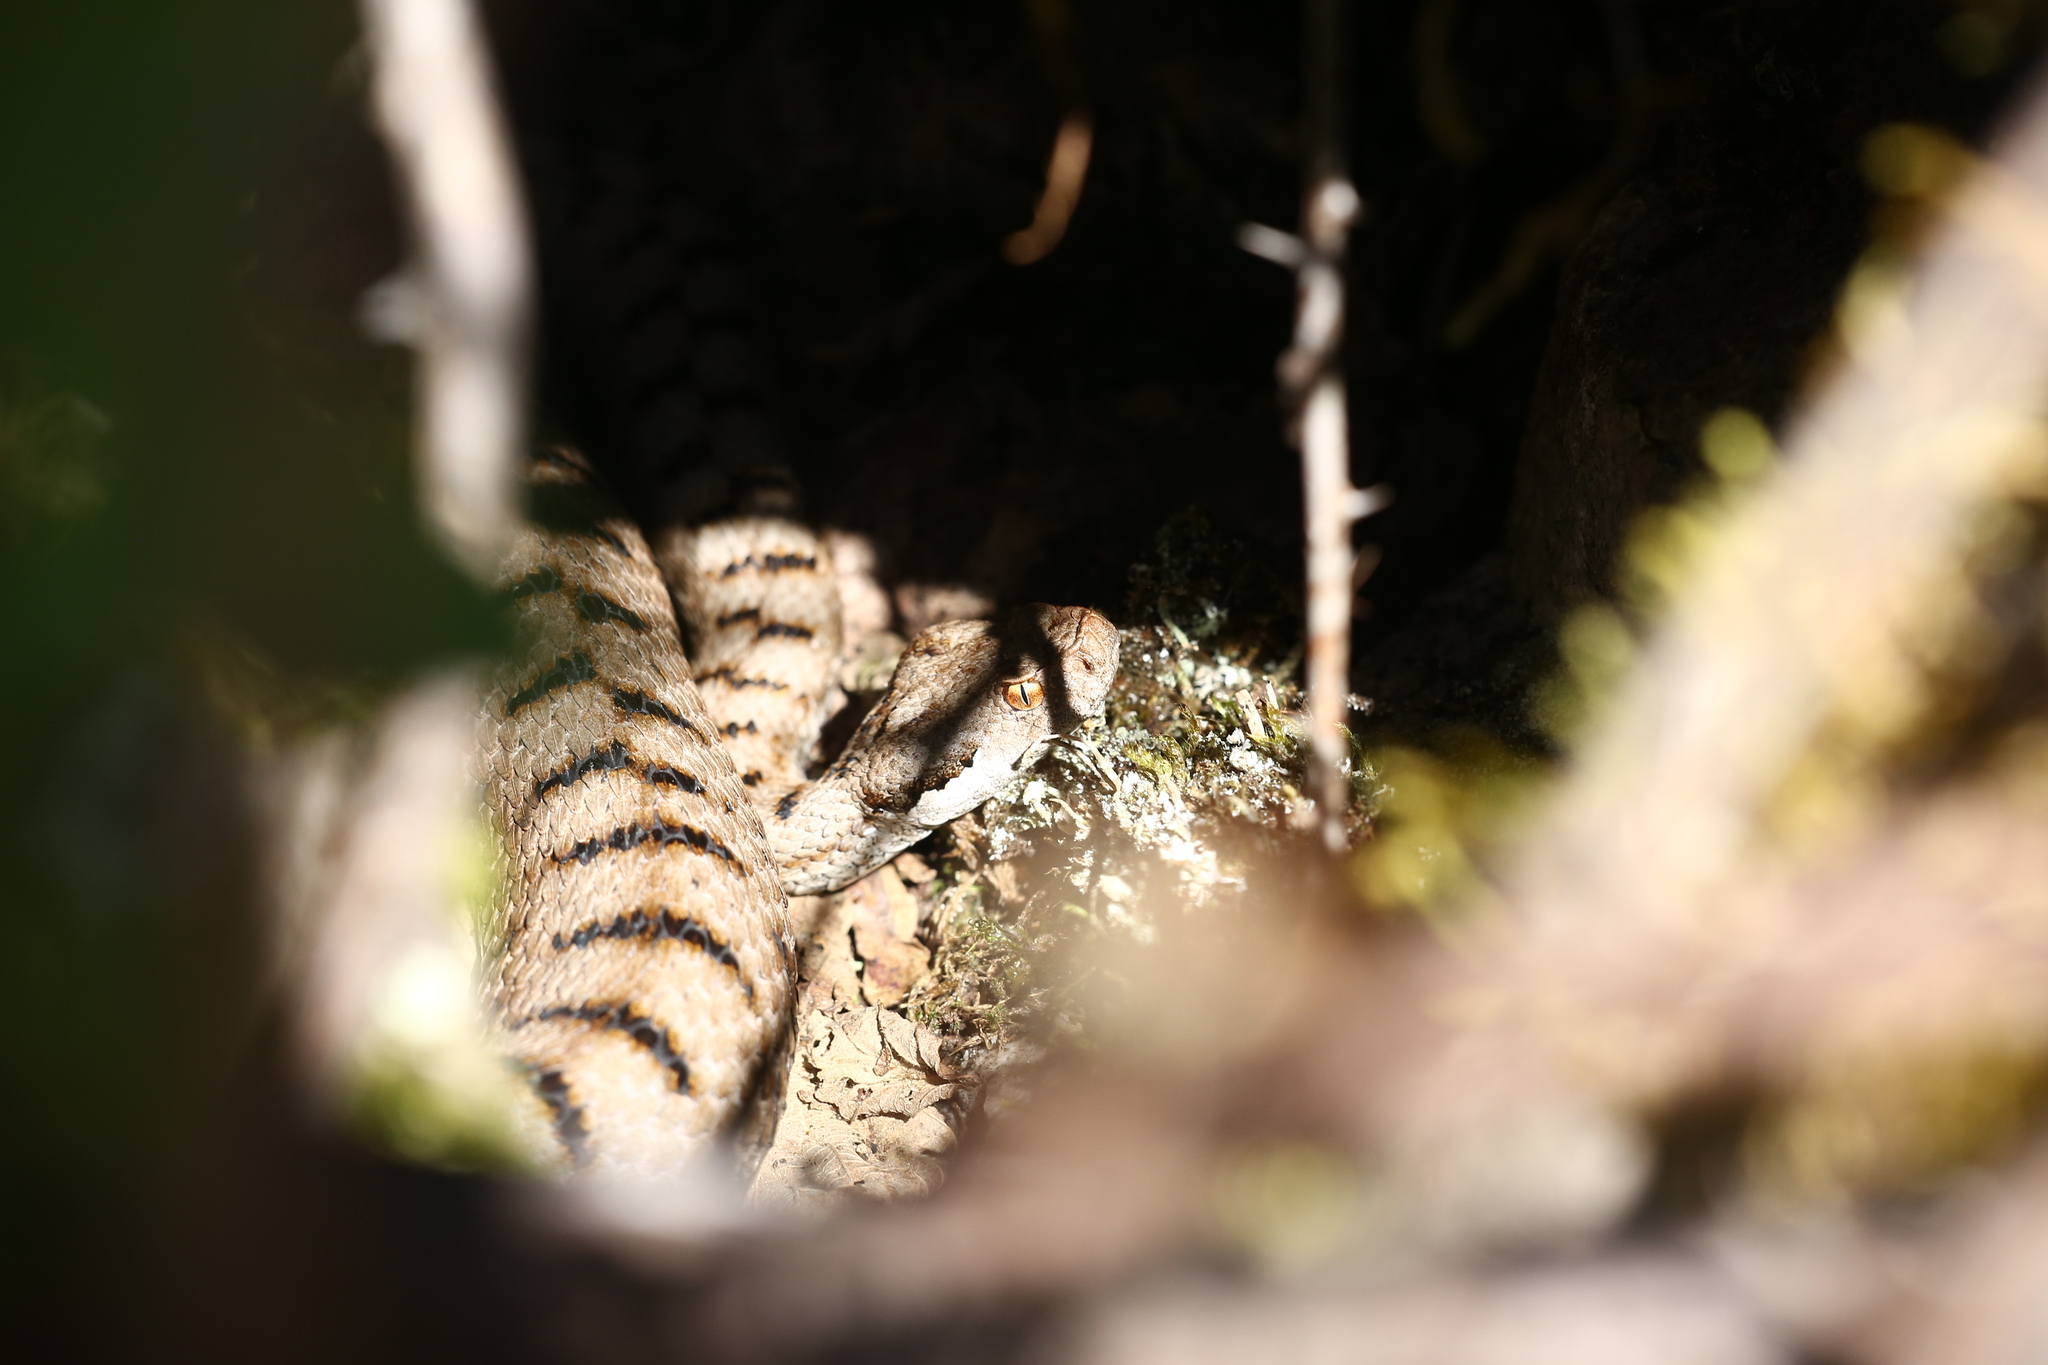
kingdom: Animalia
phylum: Chordata
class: Squamata
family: Viperidae
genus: Vipera
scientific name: Vipera aspis
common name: Asp viper
